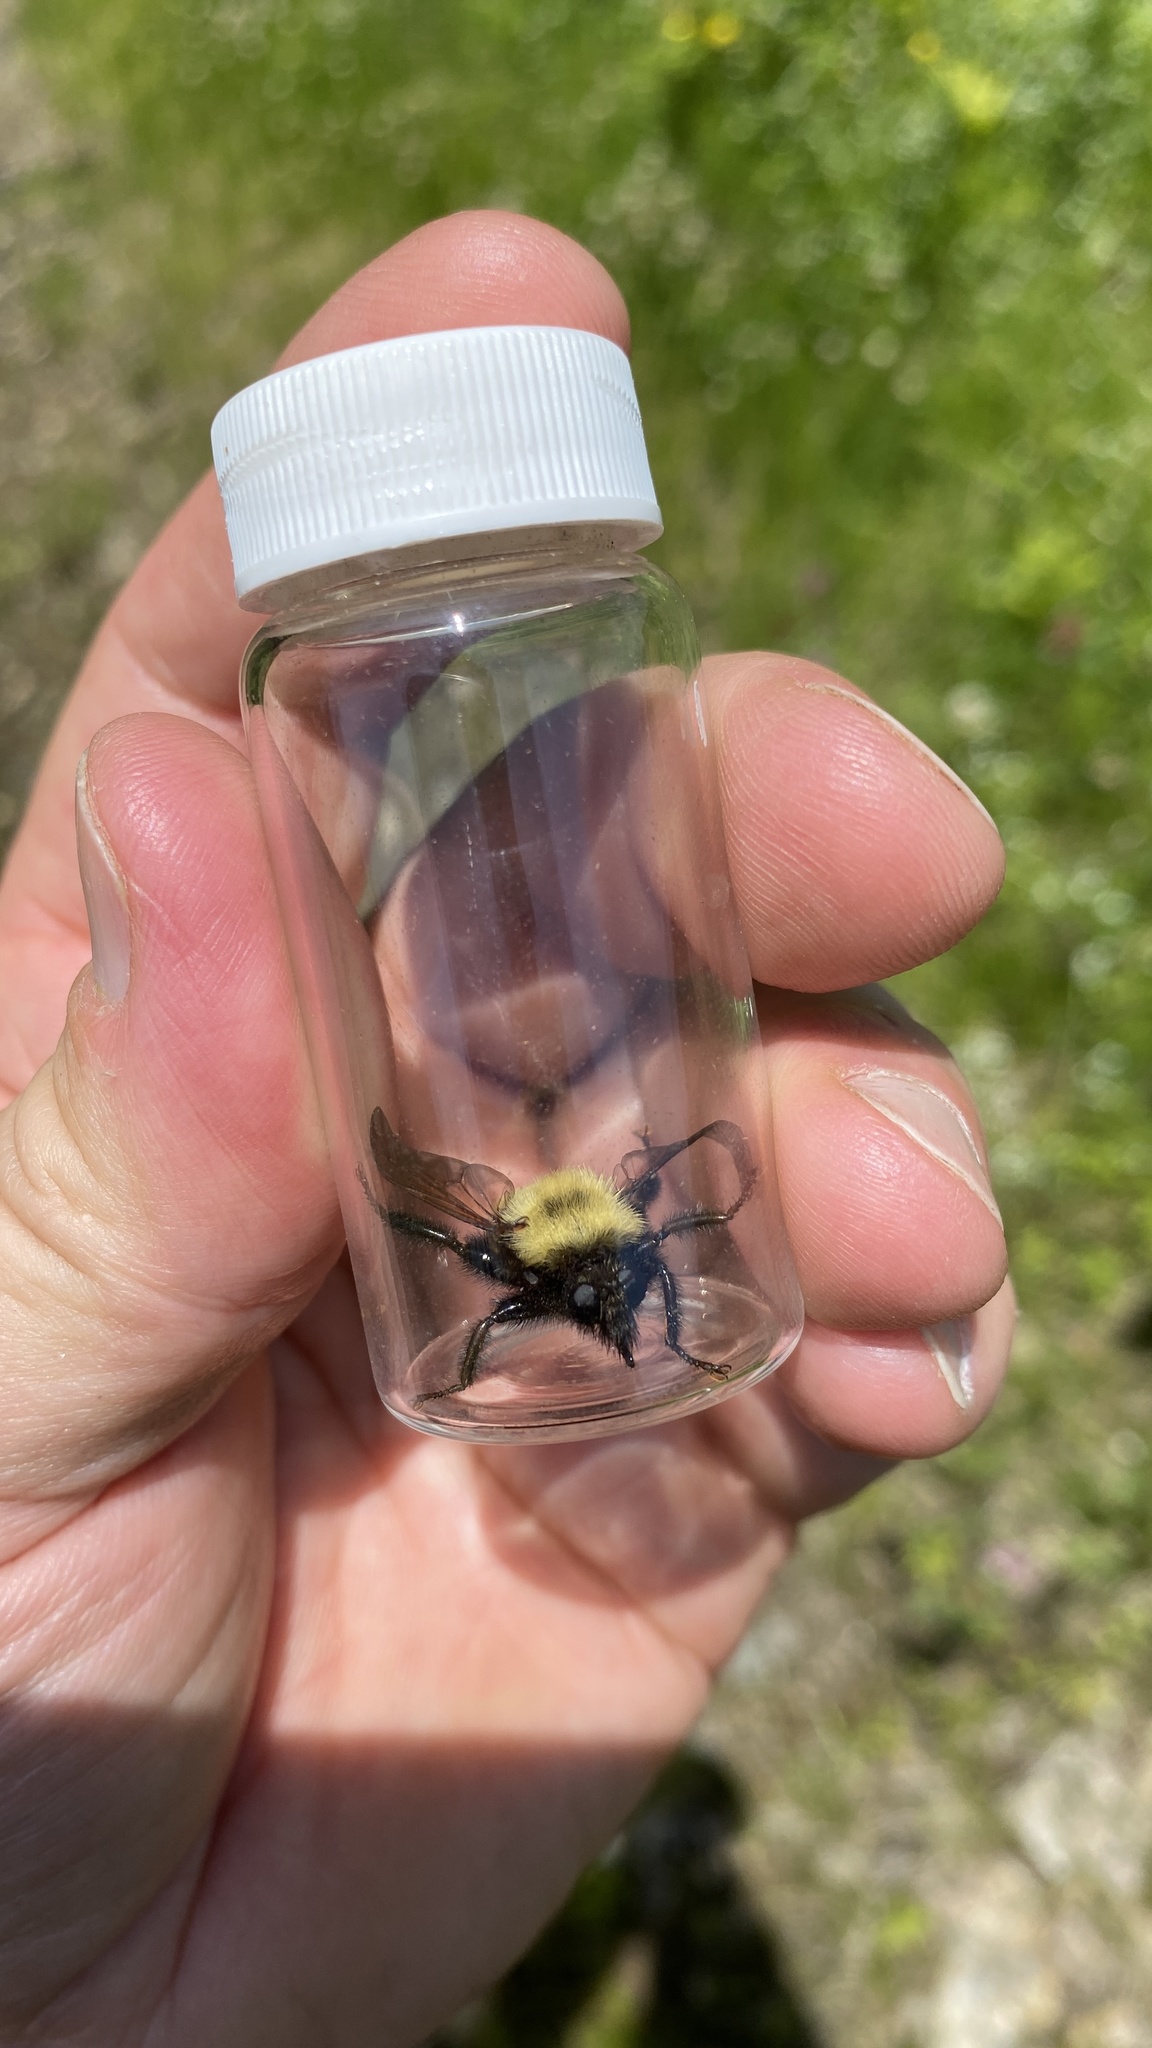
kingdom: Animalia
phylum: Arthropoda
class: Insecta
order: Diptera
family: Asilidae
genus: Laphria
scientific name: Laphria thoracica
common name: Bumble bee mimic robber fly
